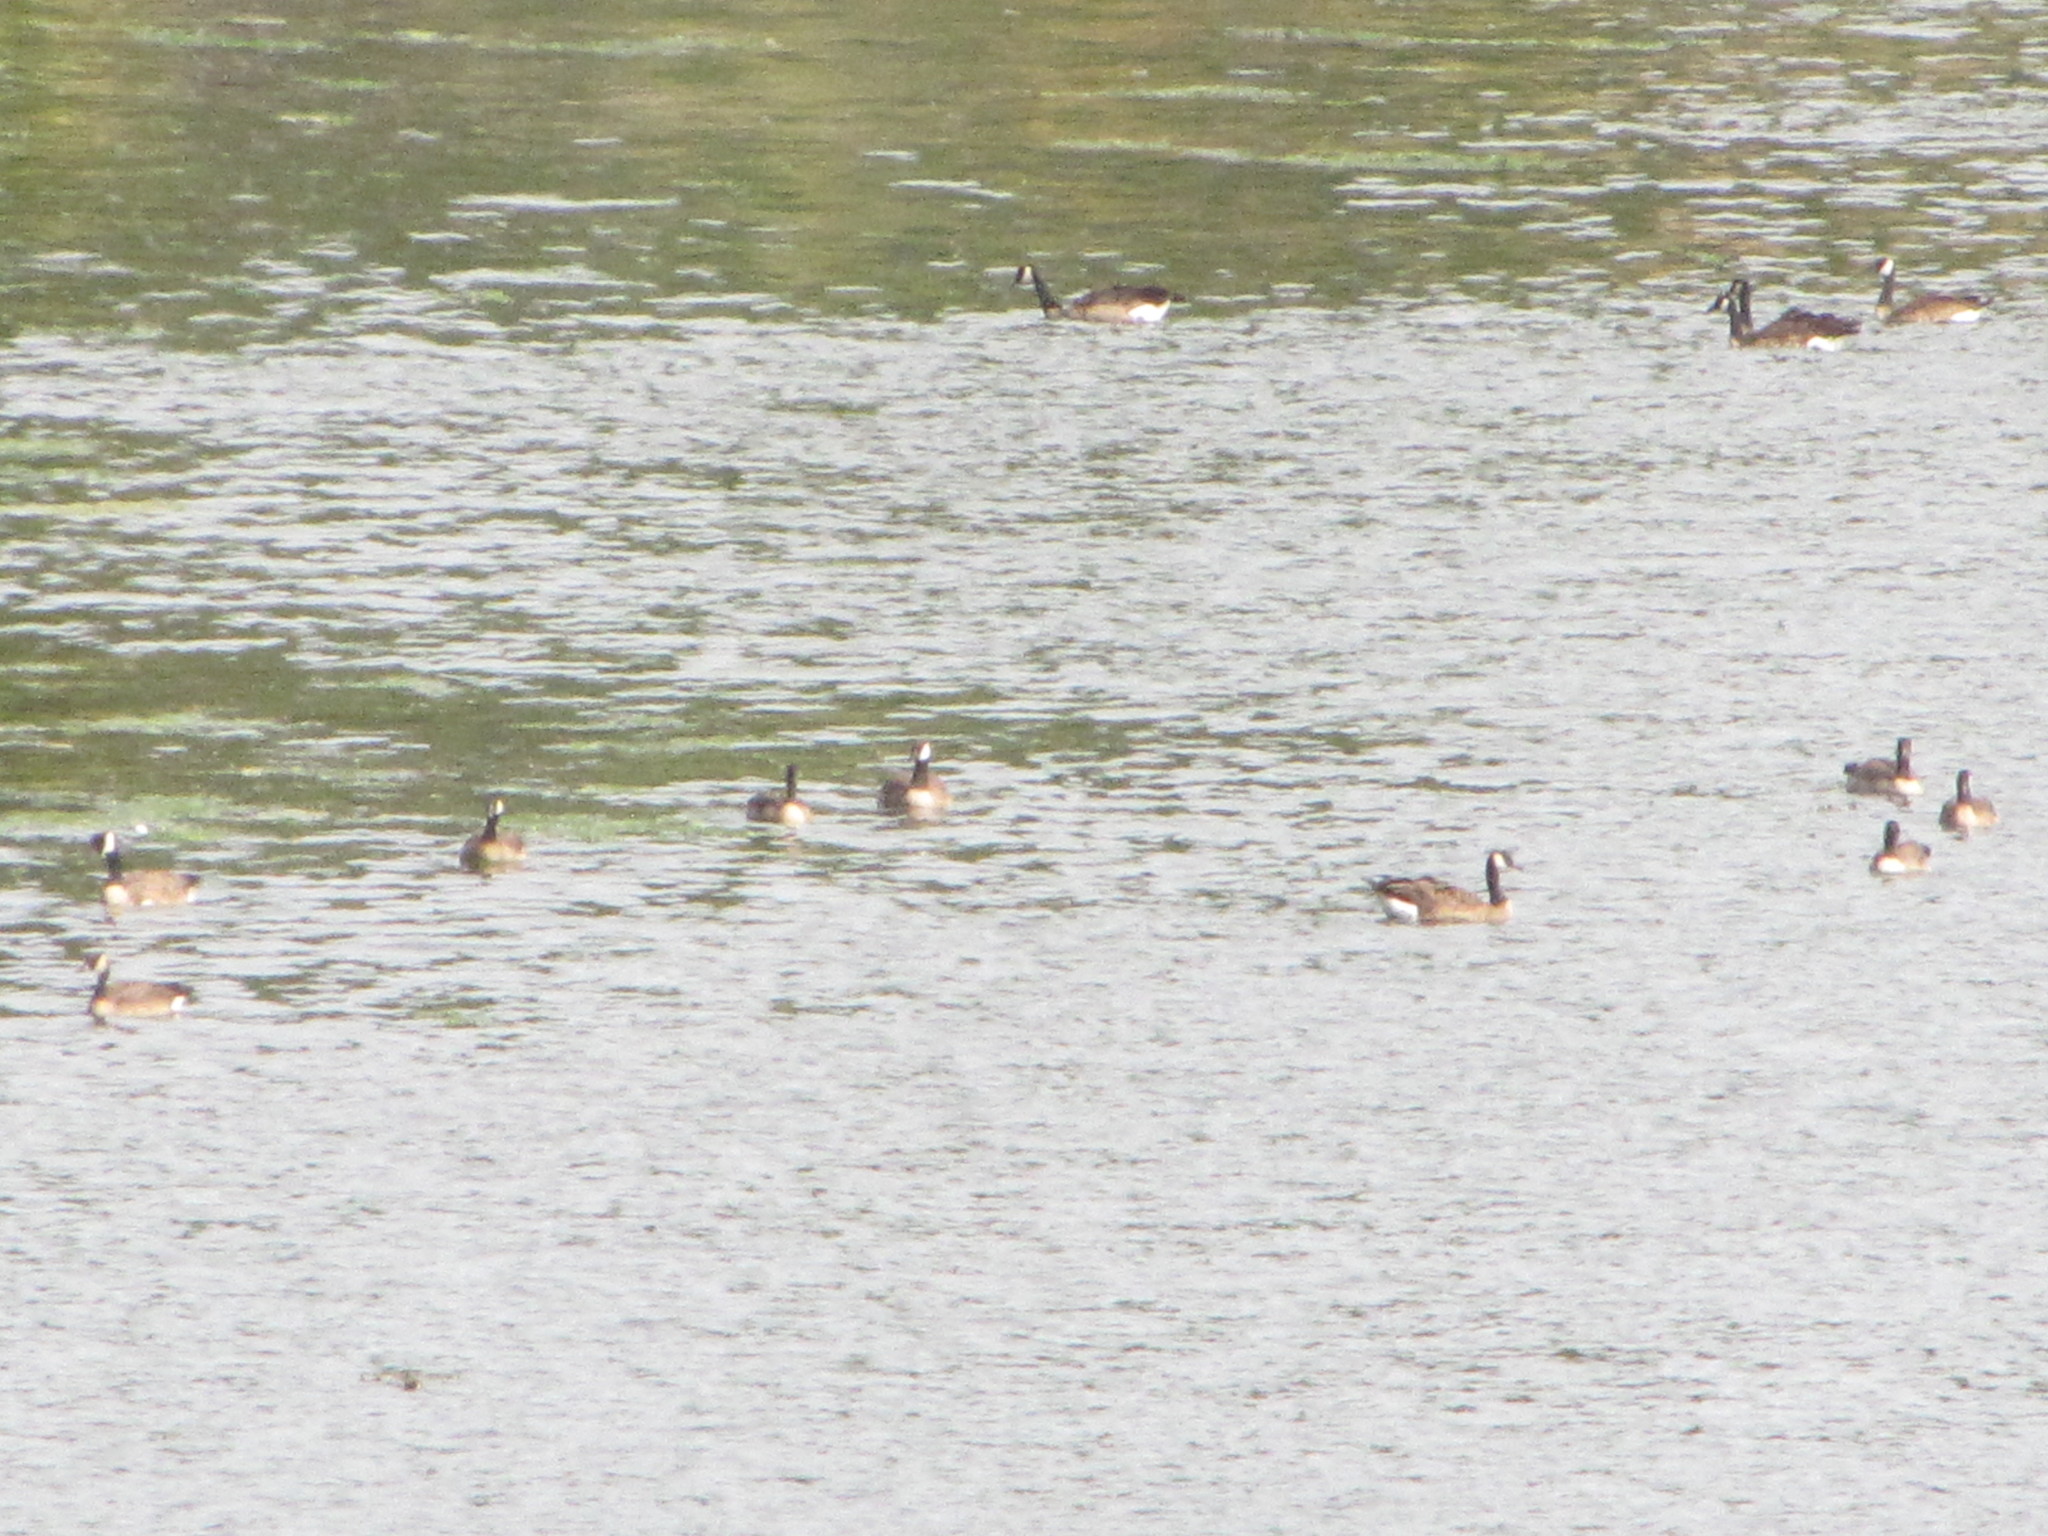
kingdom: Animalia
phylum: Chordata
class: Aves
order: Anseriformes
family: Anatidae
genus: Branta
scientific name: Branta canadensis
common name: Canada goose
